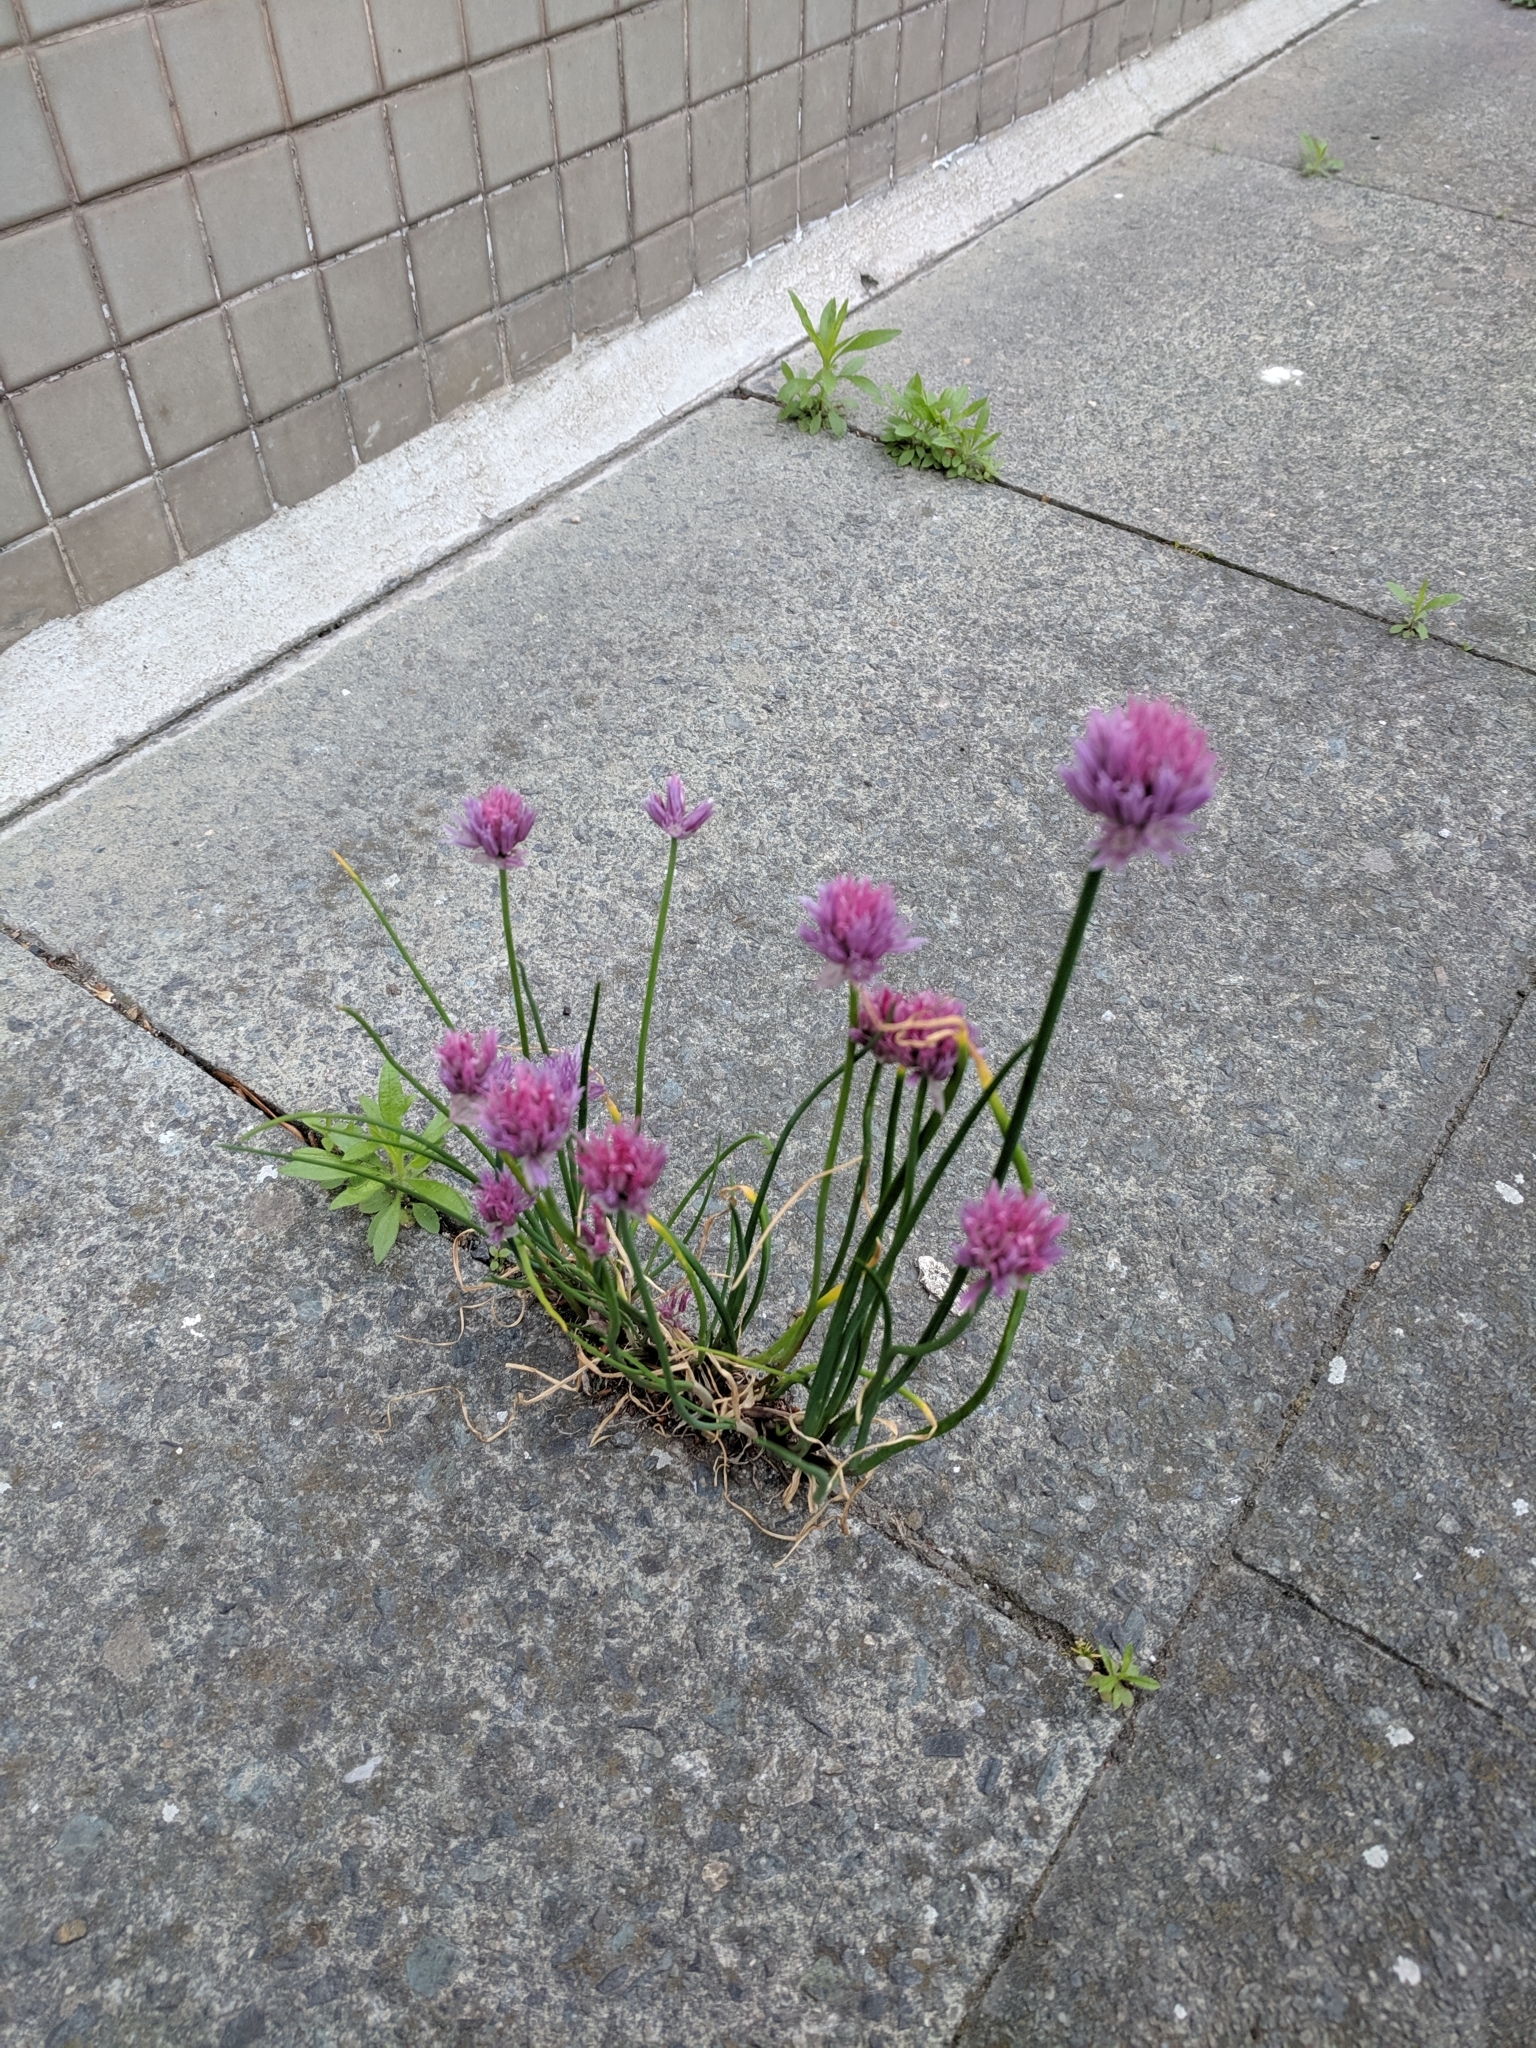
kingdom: Plantae
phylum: Tracheophyta
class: Liliopsida
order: Asparagales
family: Amaryllidaceae
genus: Allium
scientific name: Allium schoenoprasum
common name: Chives
